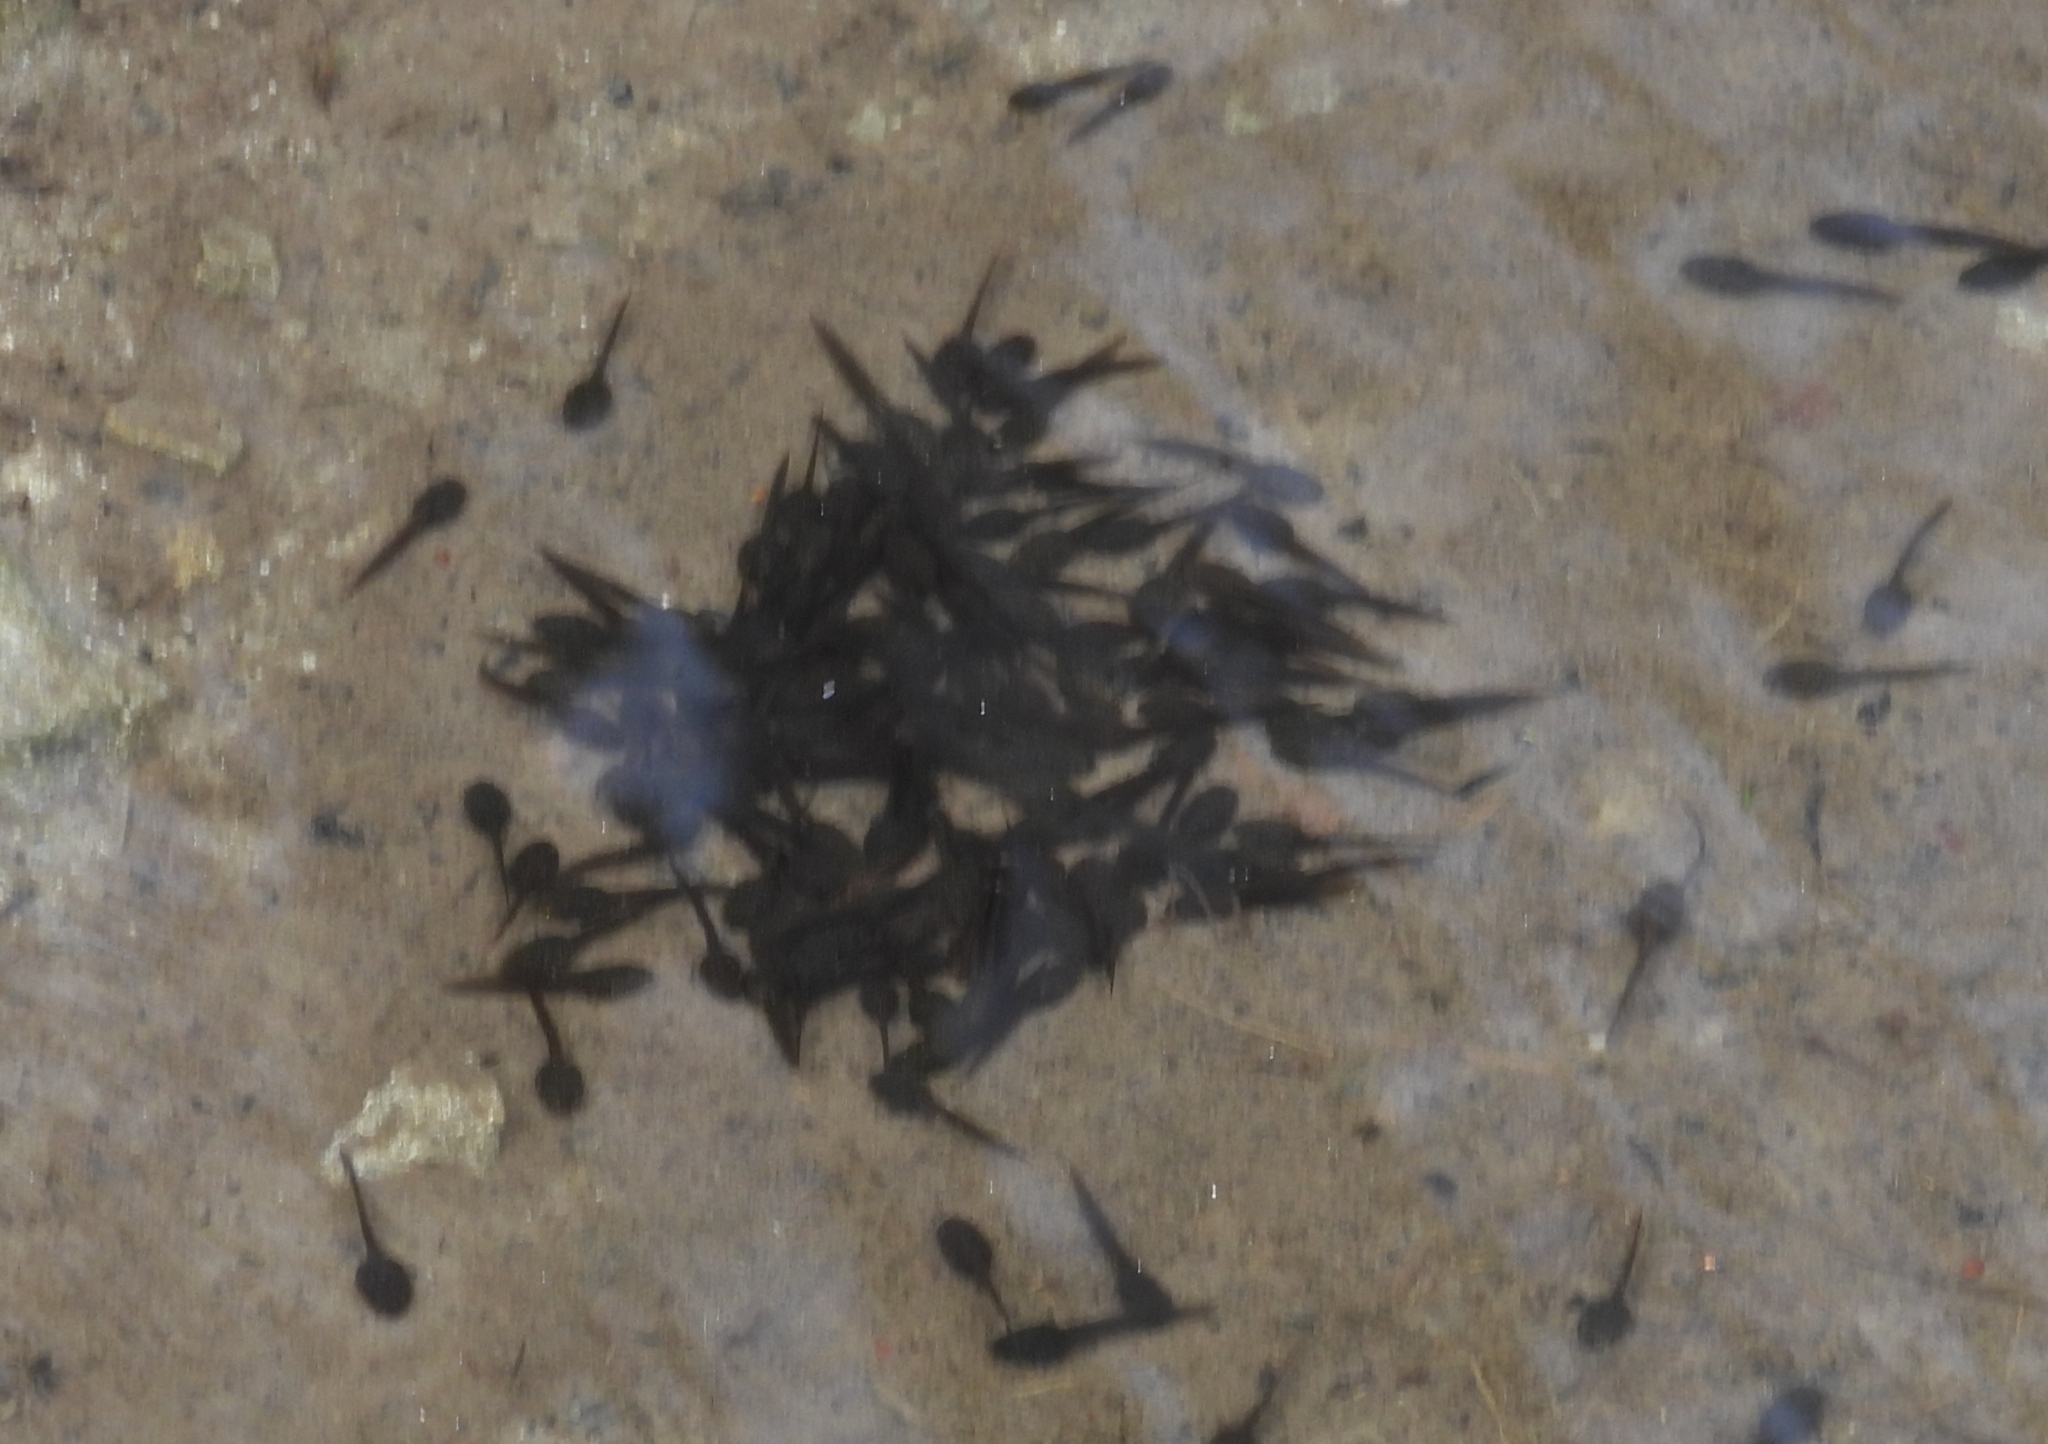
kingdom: Animalia
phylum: Chordata
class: Amphibia
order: Anura
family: Ranidae
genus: Rana
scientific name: Rana italica
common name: Italian stream frog
